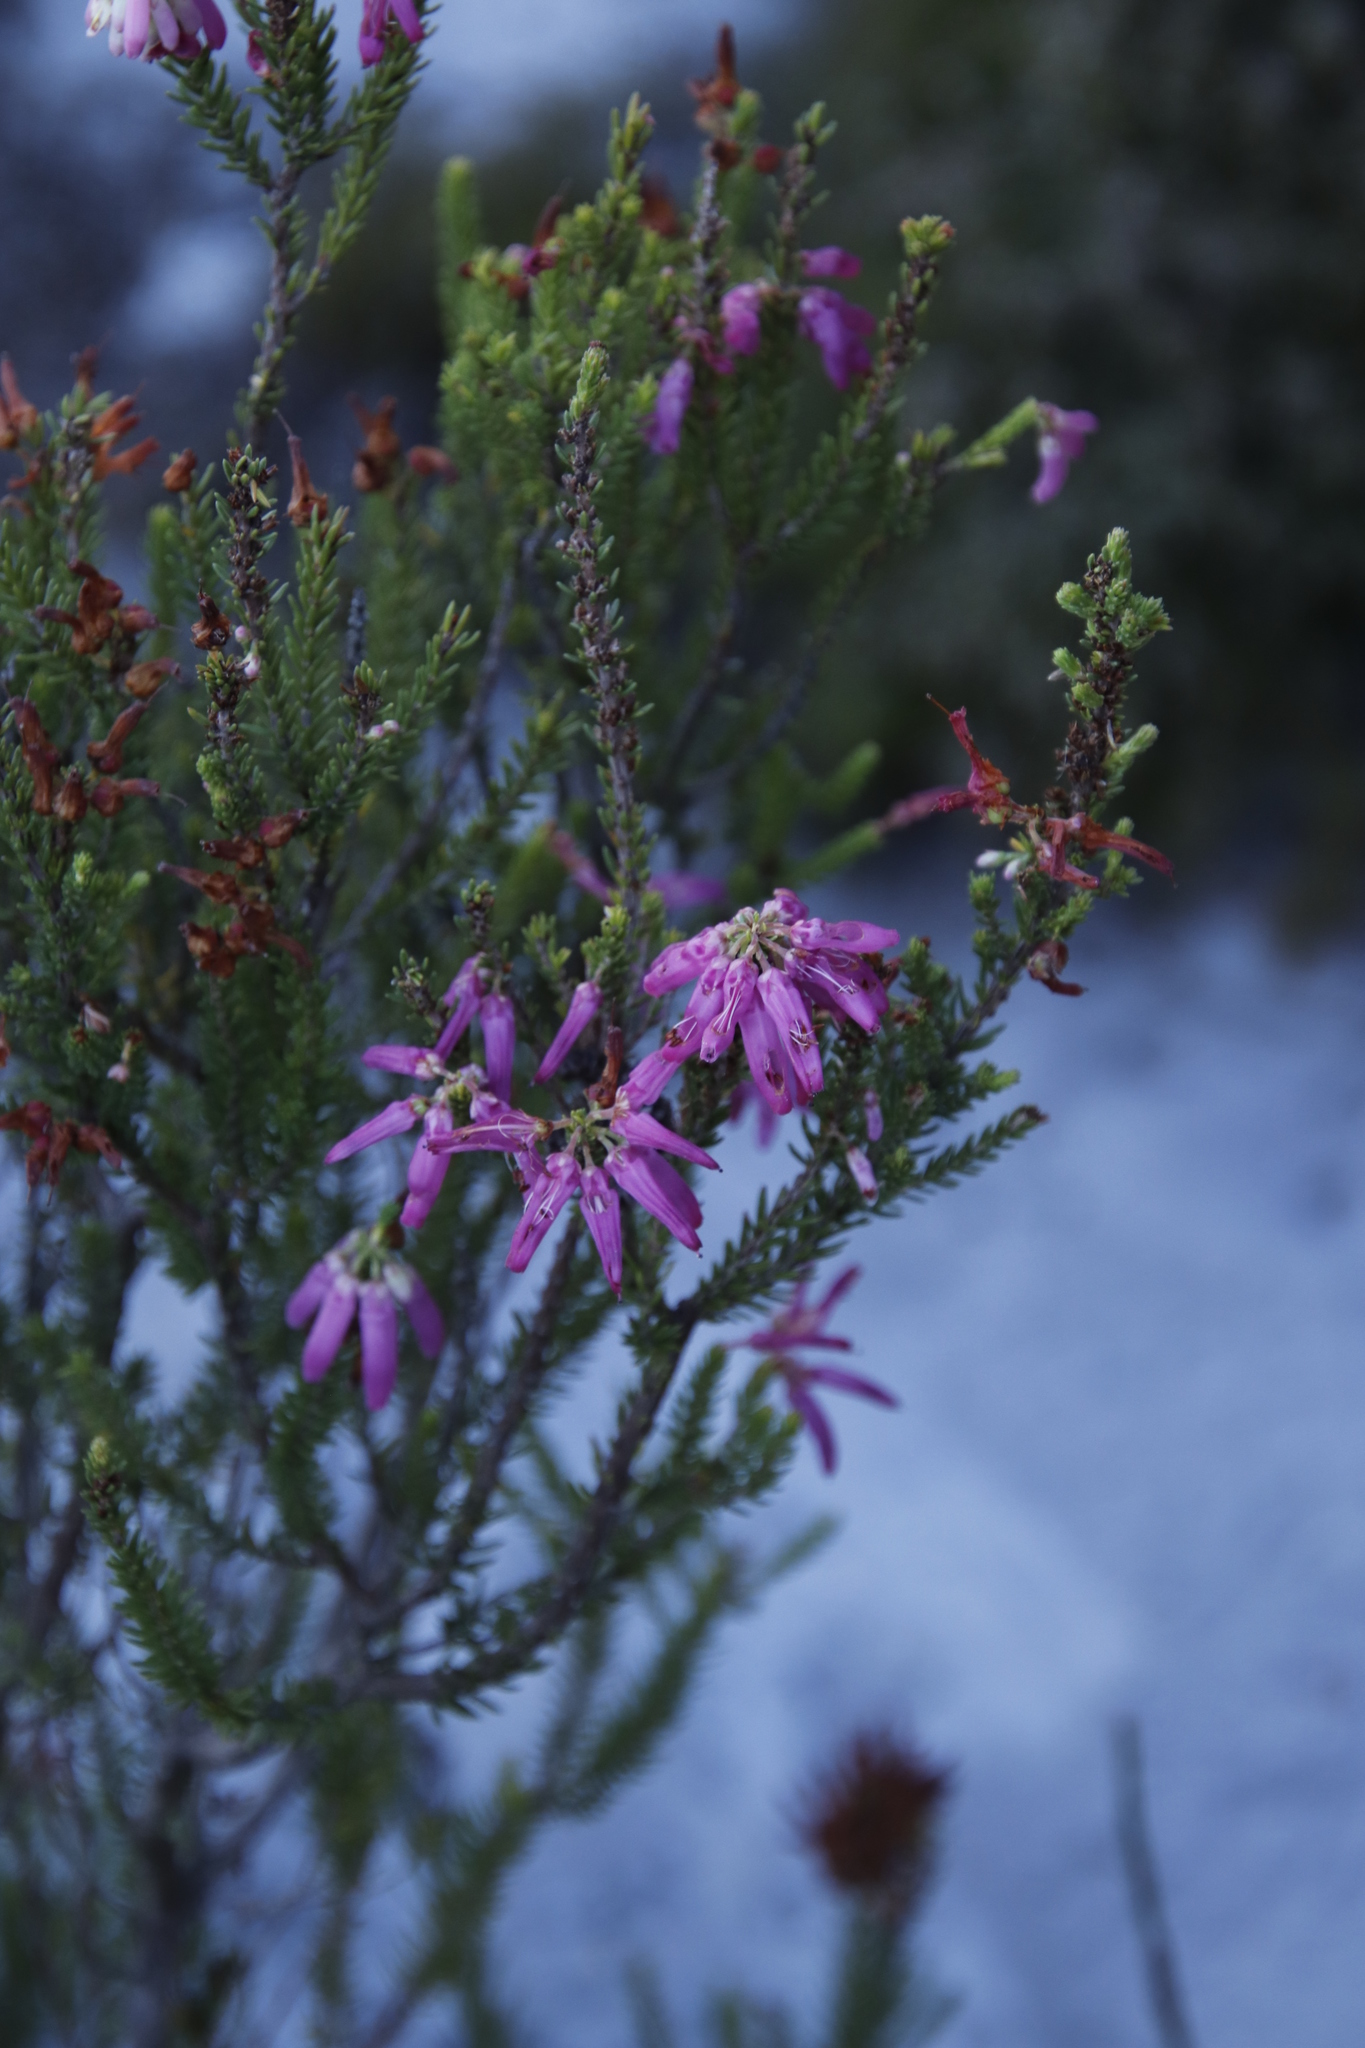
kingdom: Plantae
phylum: Tracheophyta
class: Magnoliopsida
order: Ericales
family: Ericaceae
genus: Erica
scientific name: Erica mammosa
